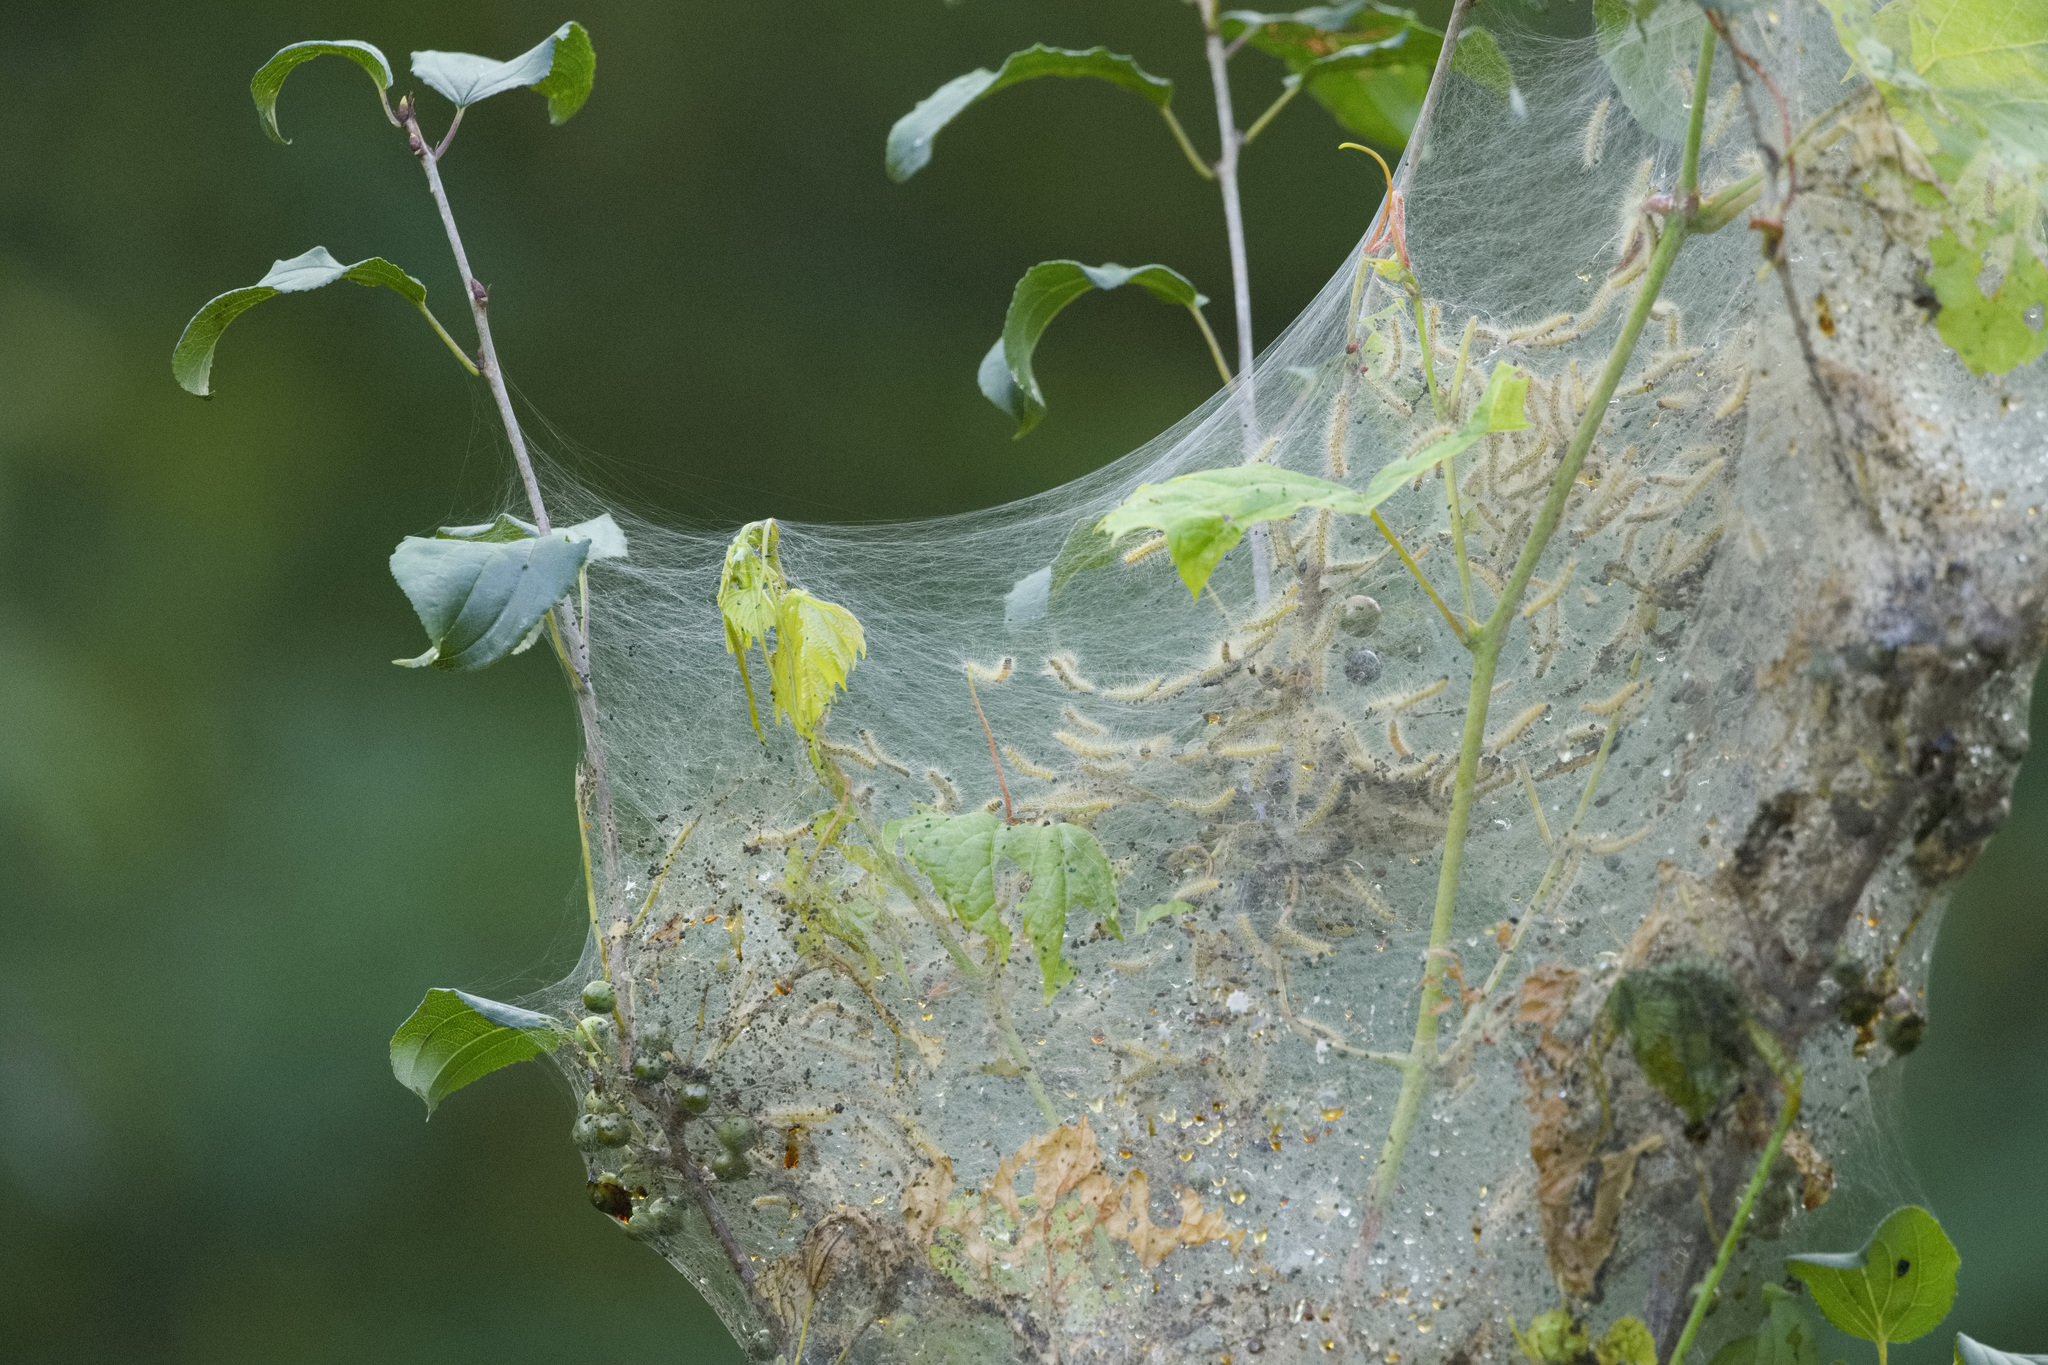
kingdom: Animalia
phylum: Arthropoda
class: Insecta
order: Lepidoptera
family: Erebidae
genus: Hyphantria
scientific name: Hyphantria cunea
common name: American white moth
